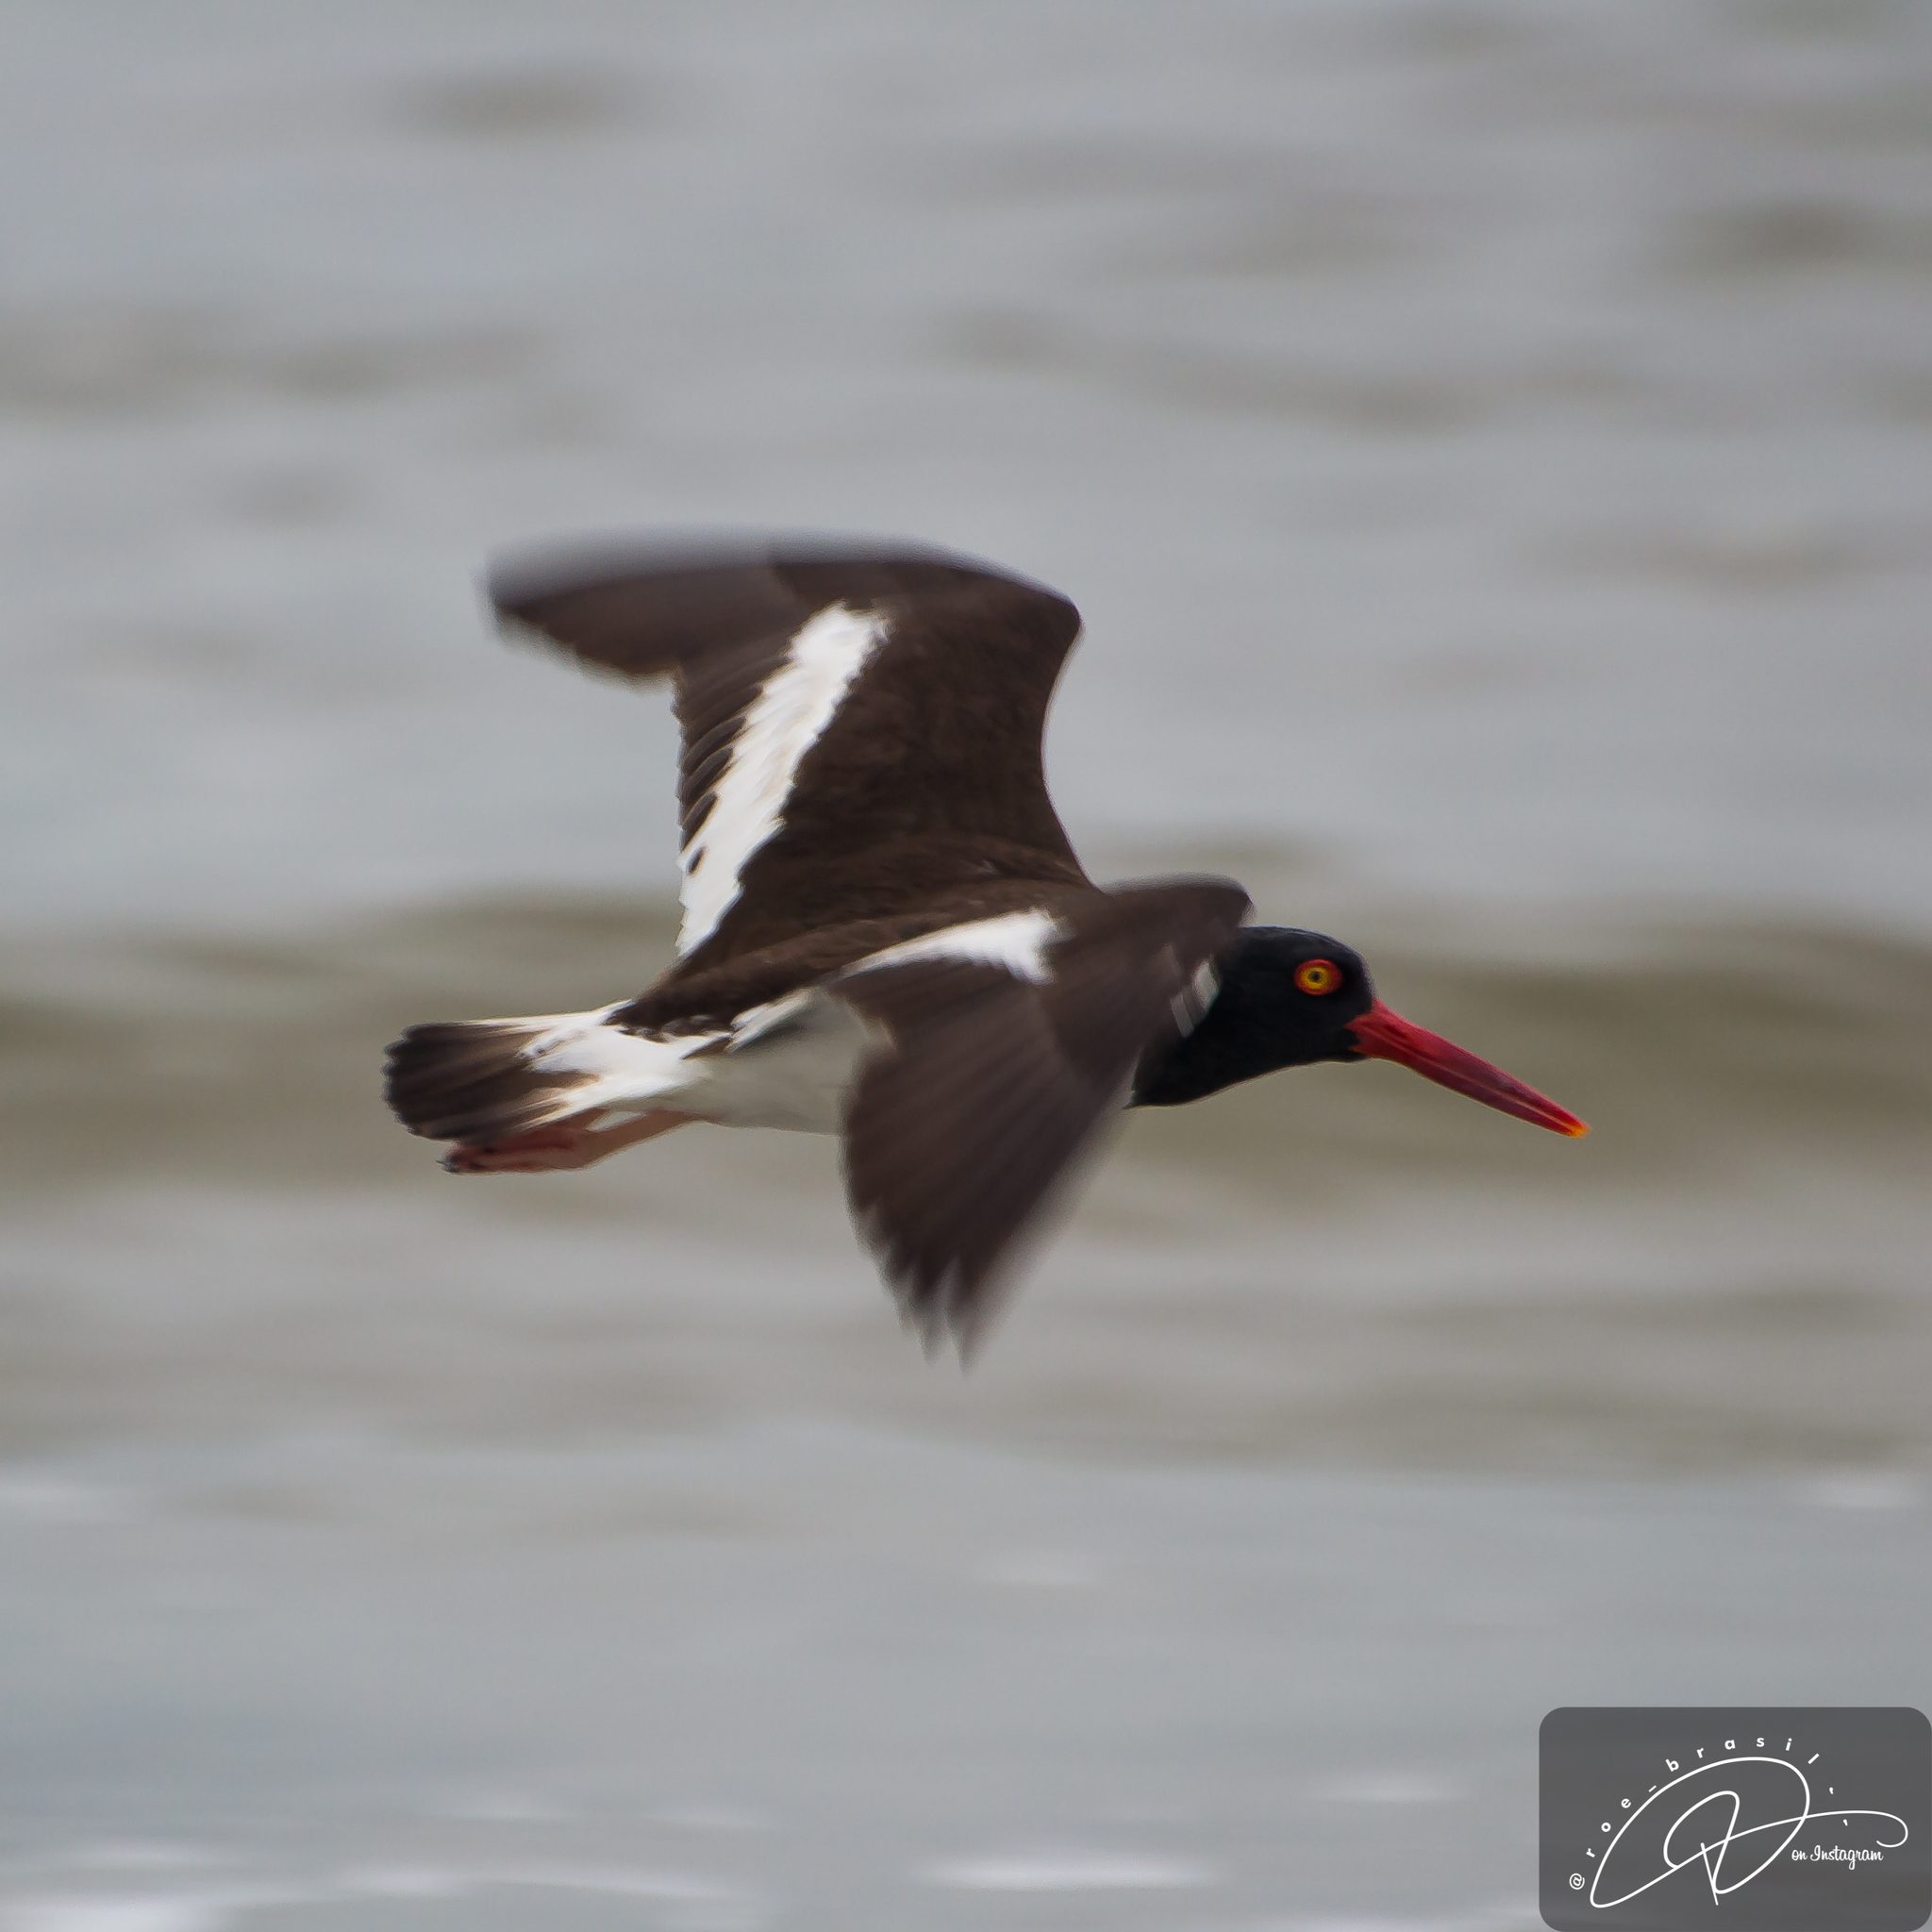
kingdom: Animalia
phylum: Chordata
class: Aves
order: Charadriiformes
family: Haematopodidae
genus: Haematopus
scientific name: Haematopus palliatus
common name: American oystercatcher
